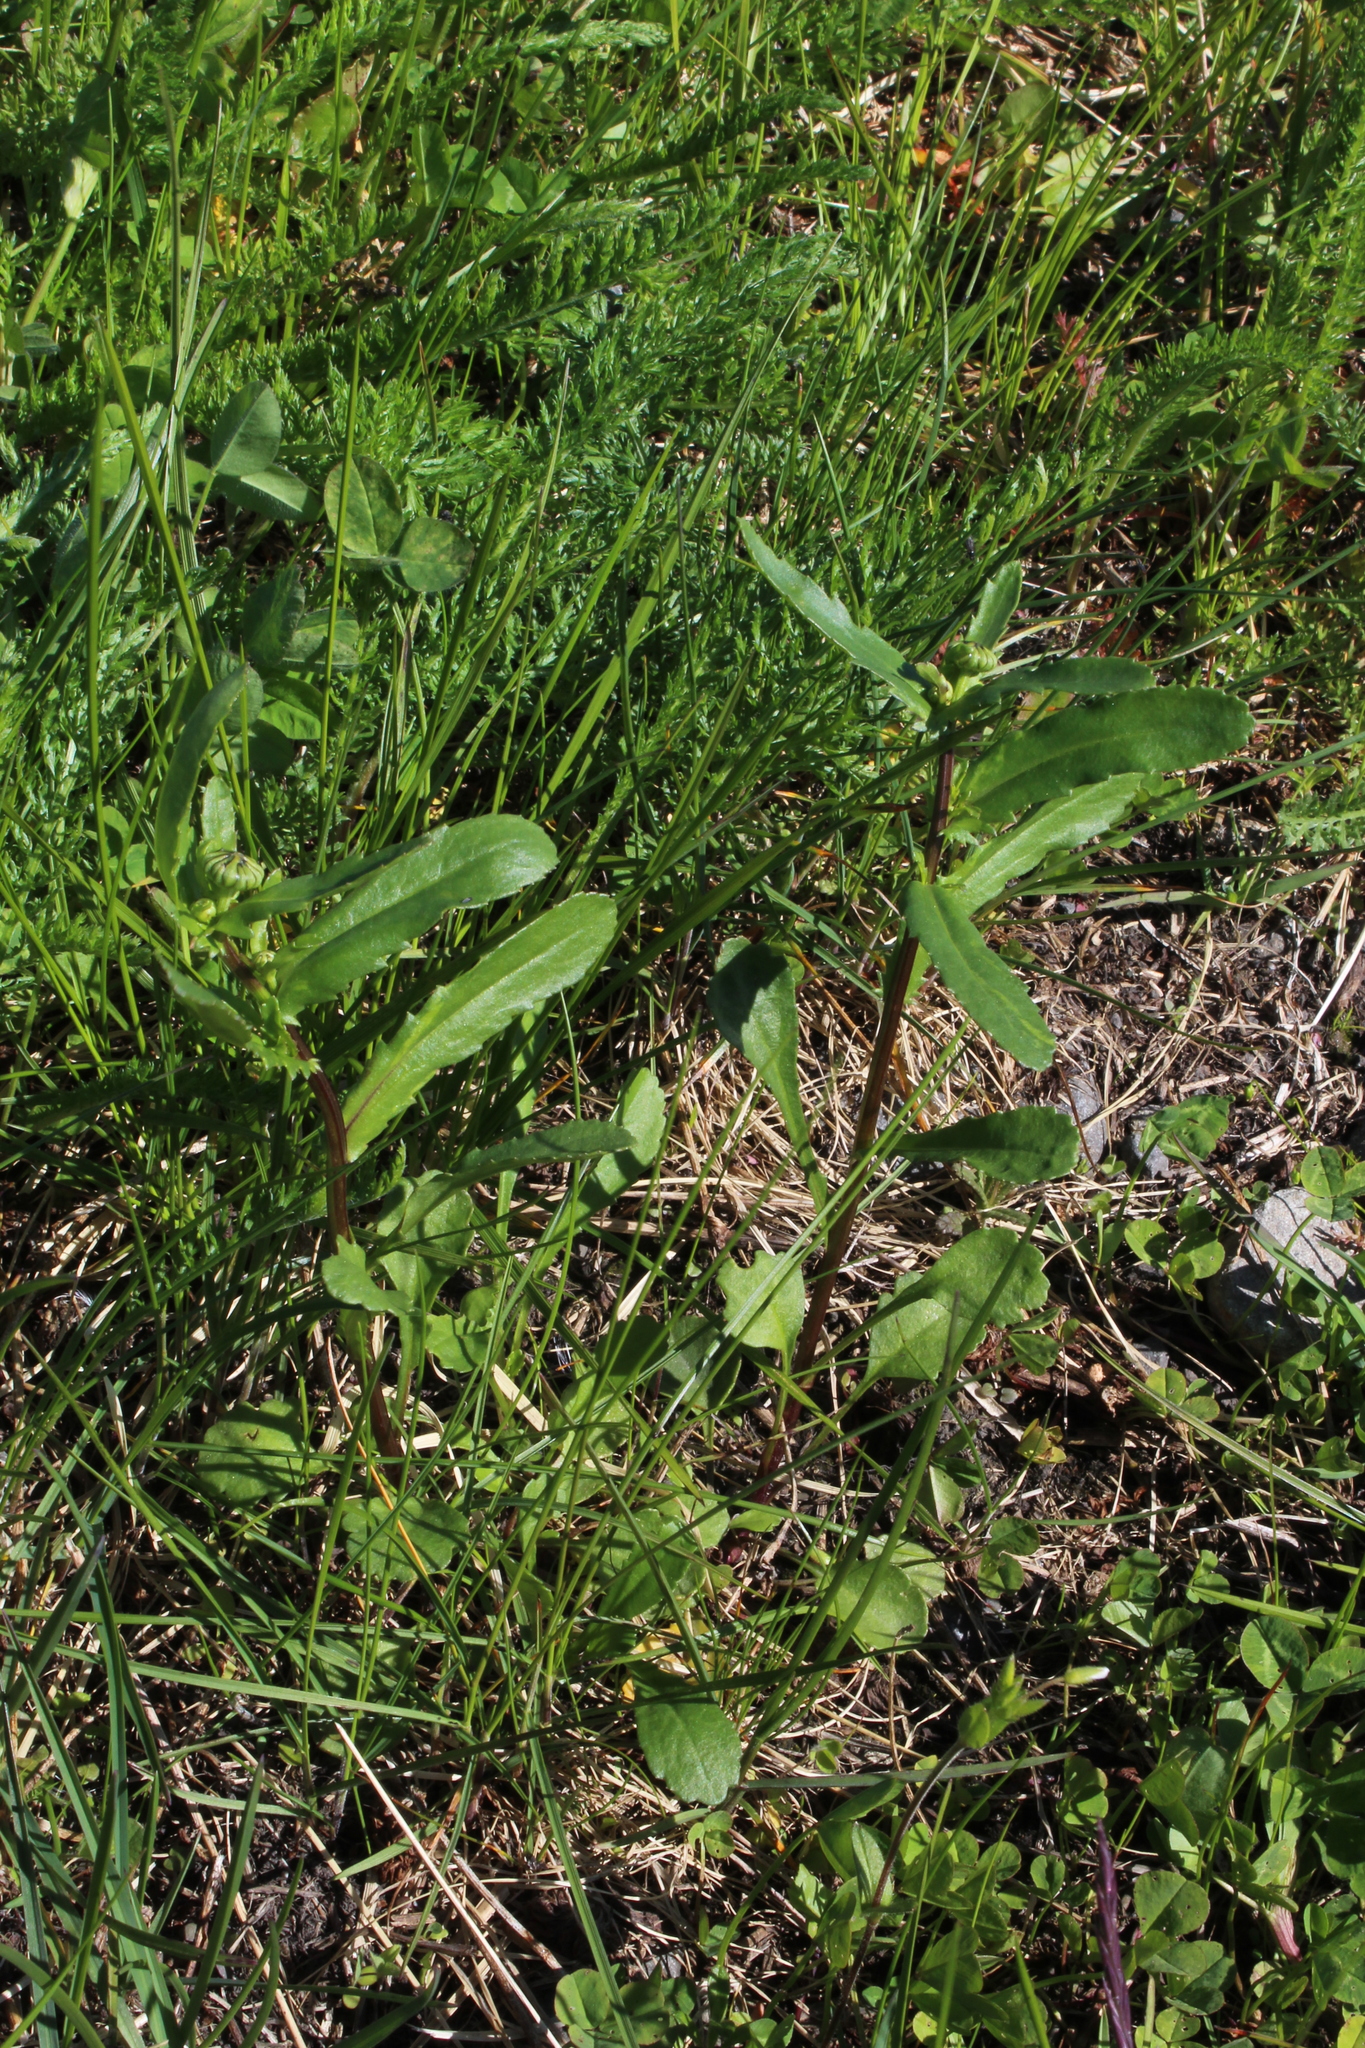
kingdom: Plantae
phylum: Tracheophyta
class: Magnoliopsida
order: Asterales
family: Asteraceae
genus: Leucanthemum
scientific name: Leucanthemum vulgare
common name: Oxeye daisy
